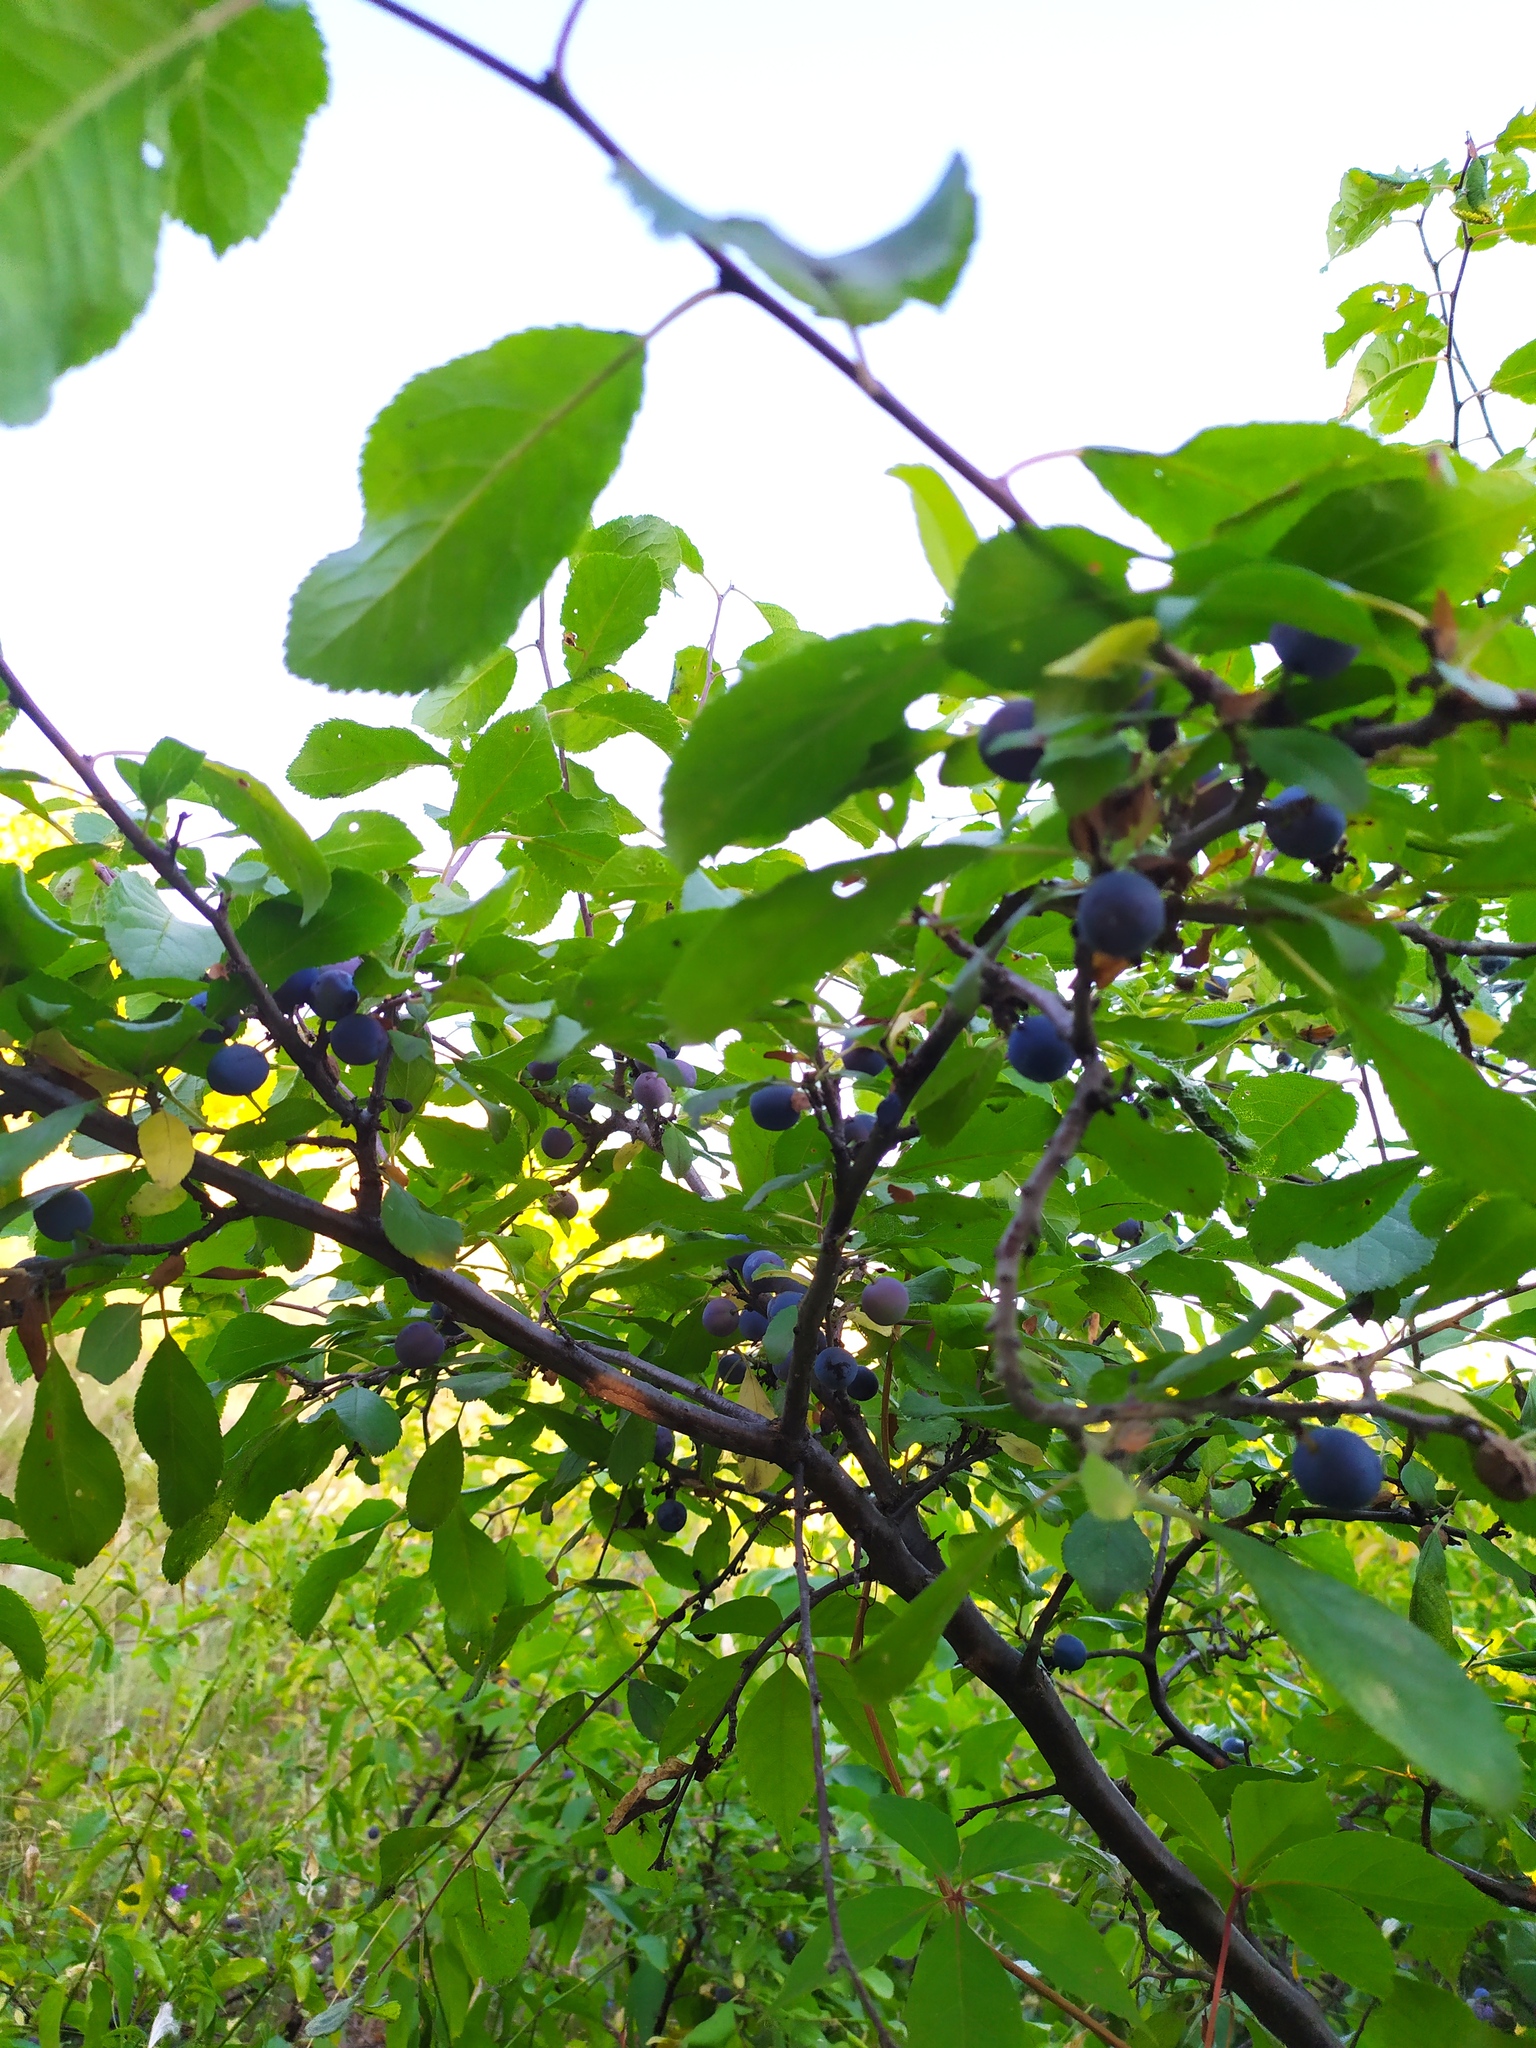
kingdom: Plantae
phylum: Tracheophyta
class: Magnoliopsida
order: Rosales
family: Rosaceae
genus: Prunus
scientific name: Prunus spinosa
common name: Blackthorn
